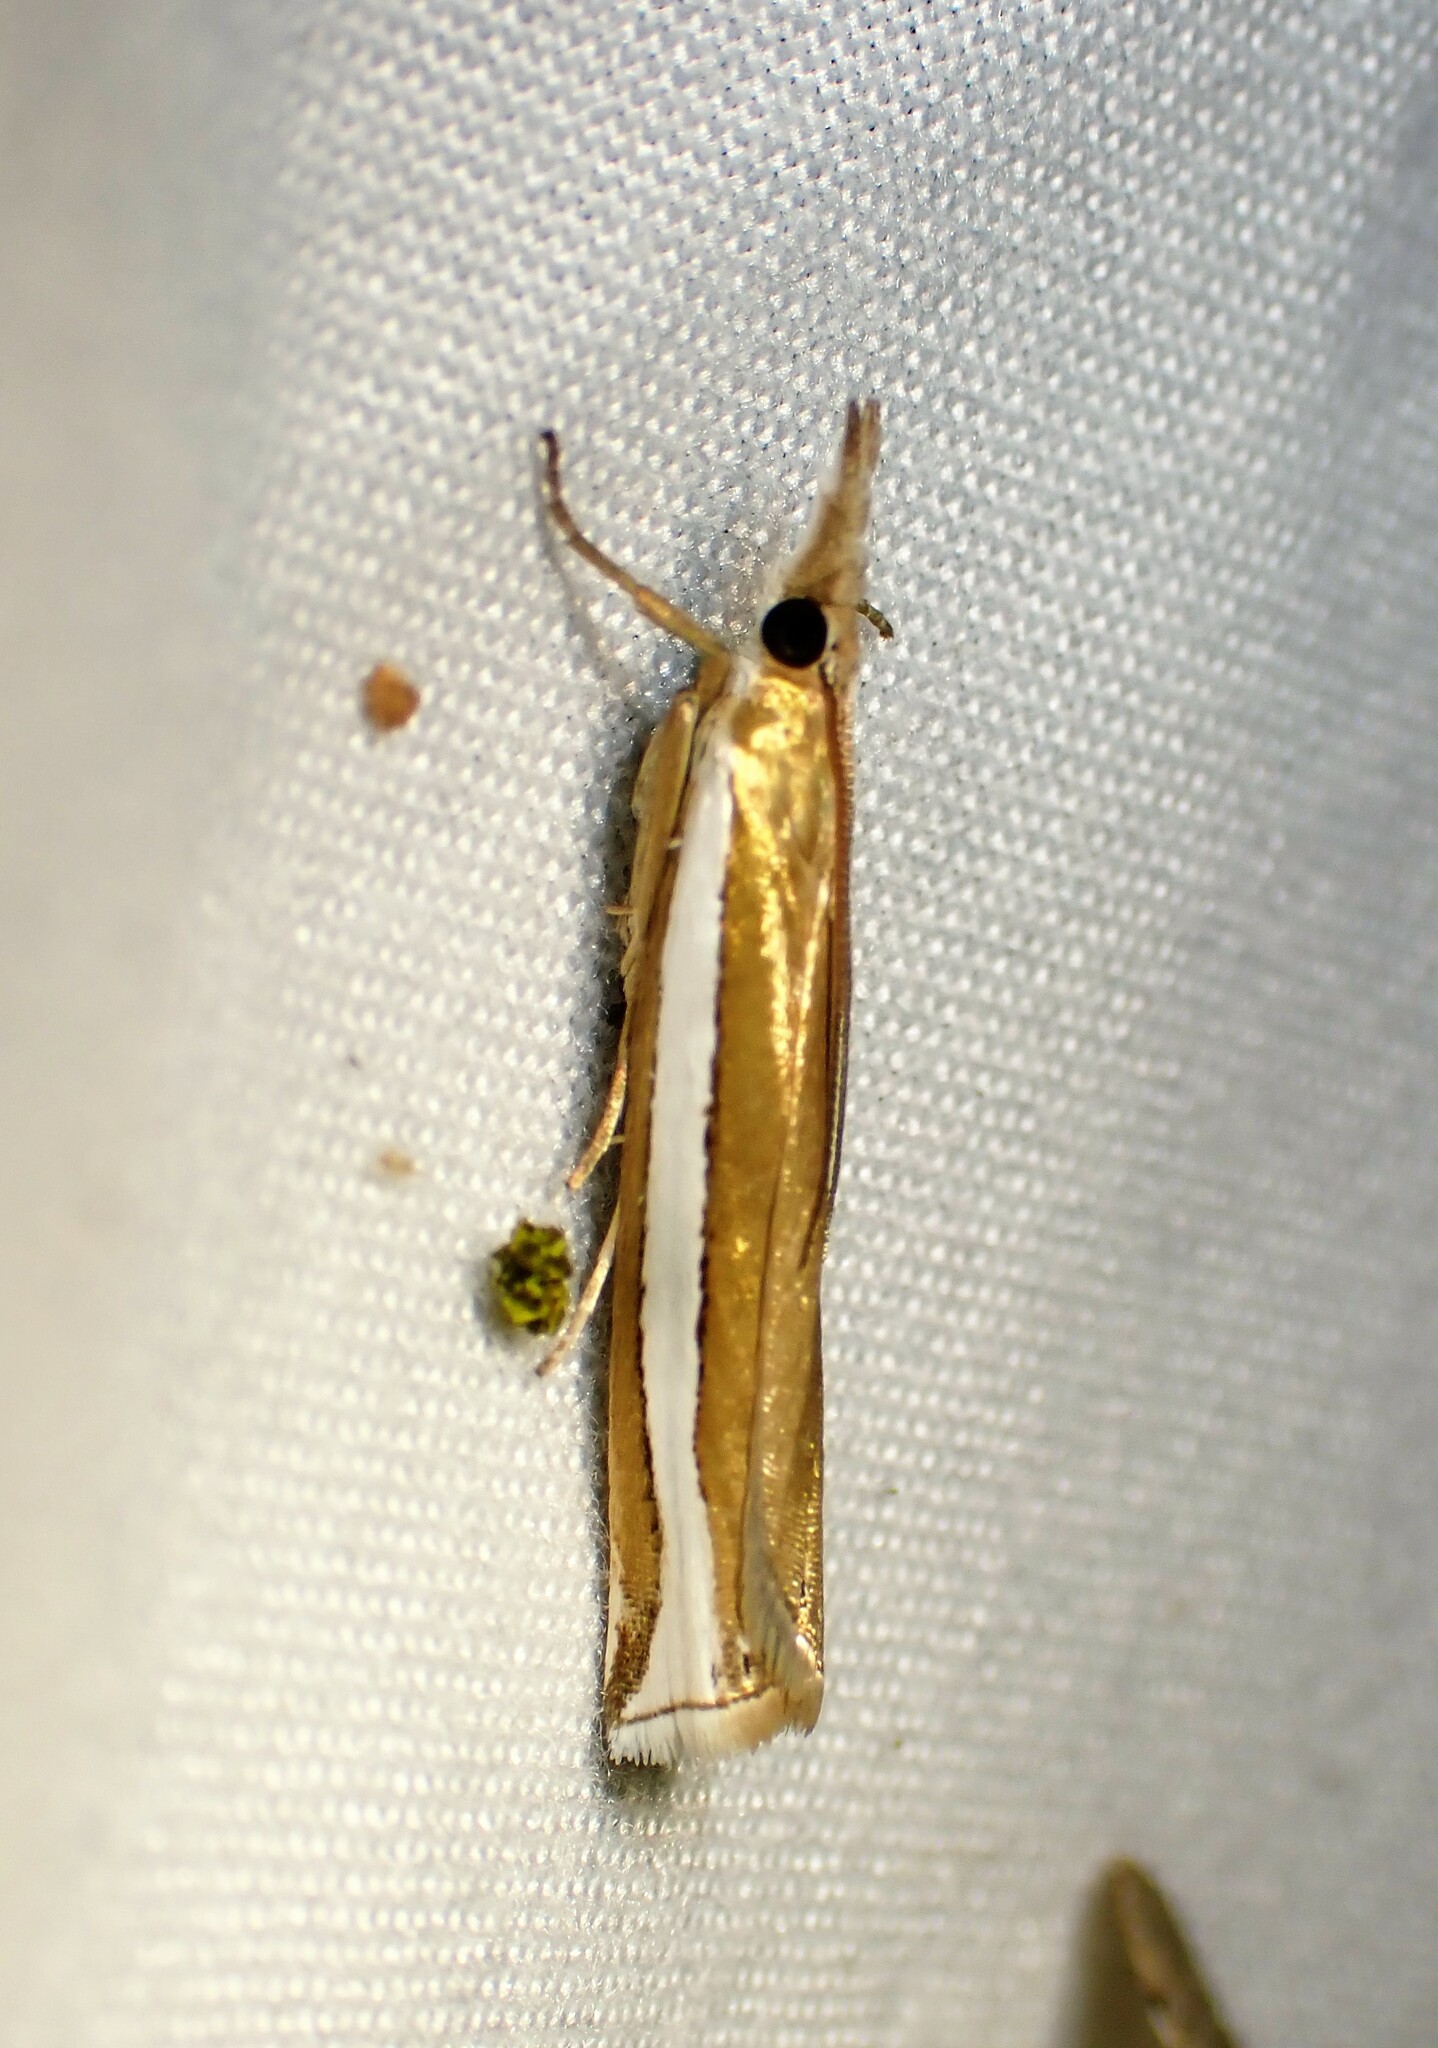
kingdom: Animalia
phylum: Arthropoda
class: Insecta
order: Lepidoptera
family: Crambidae
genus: Crambus
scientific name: Crambus unistriatellus
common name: Wide-stripe grass-veneer moth
